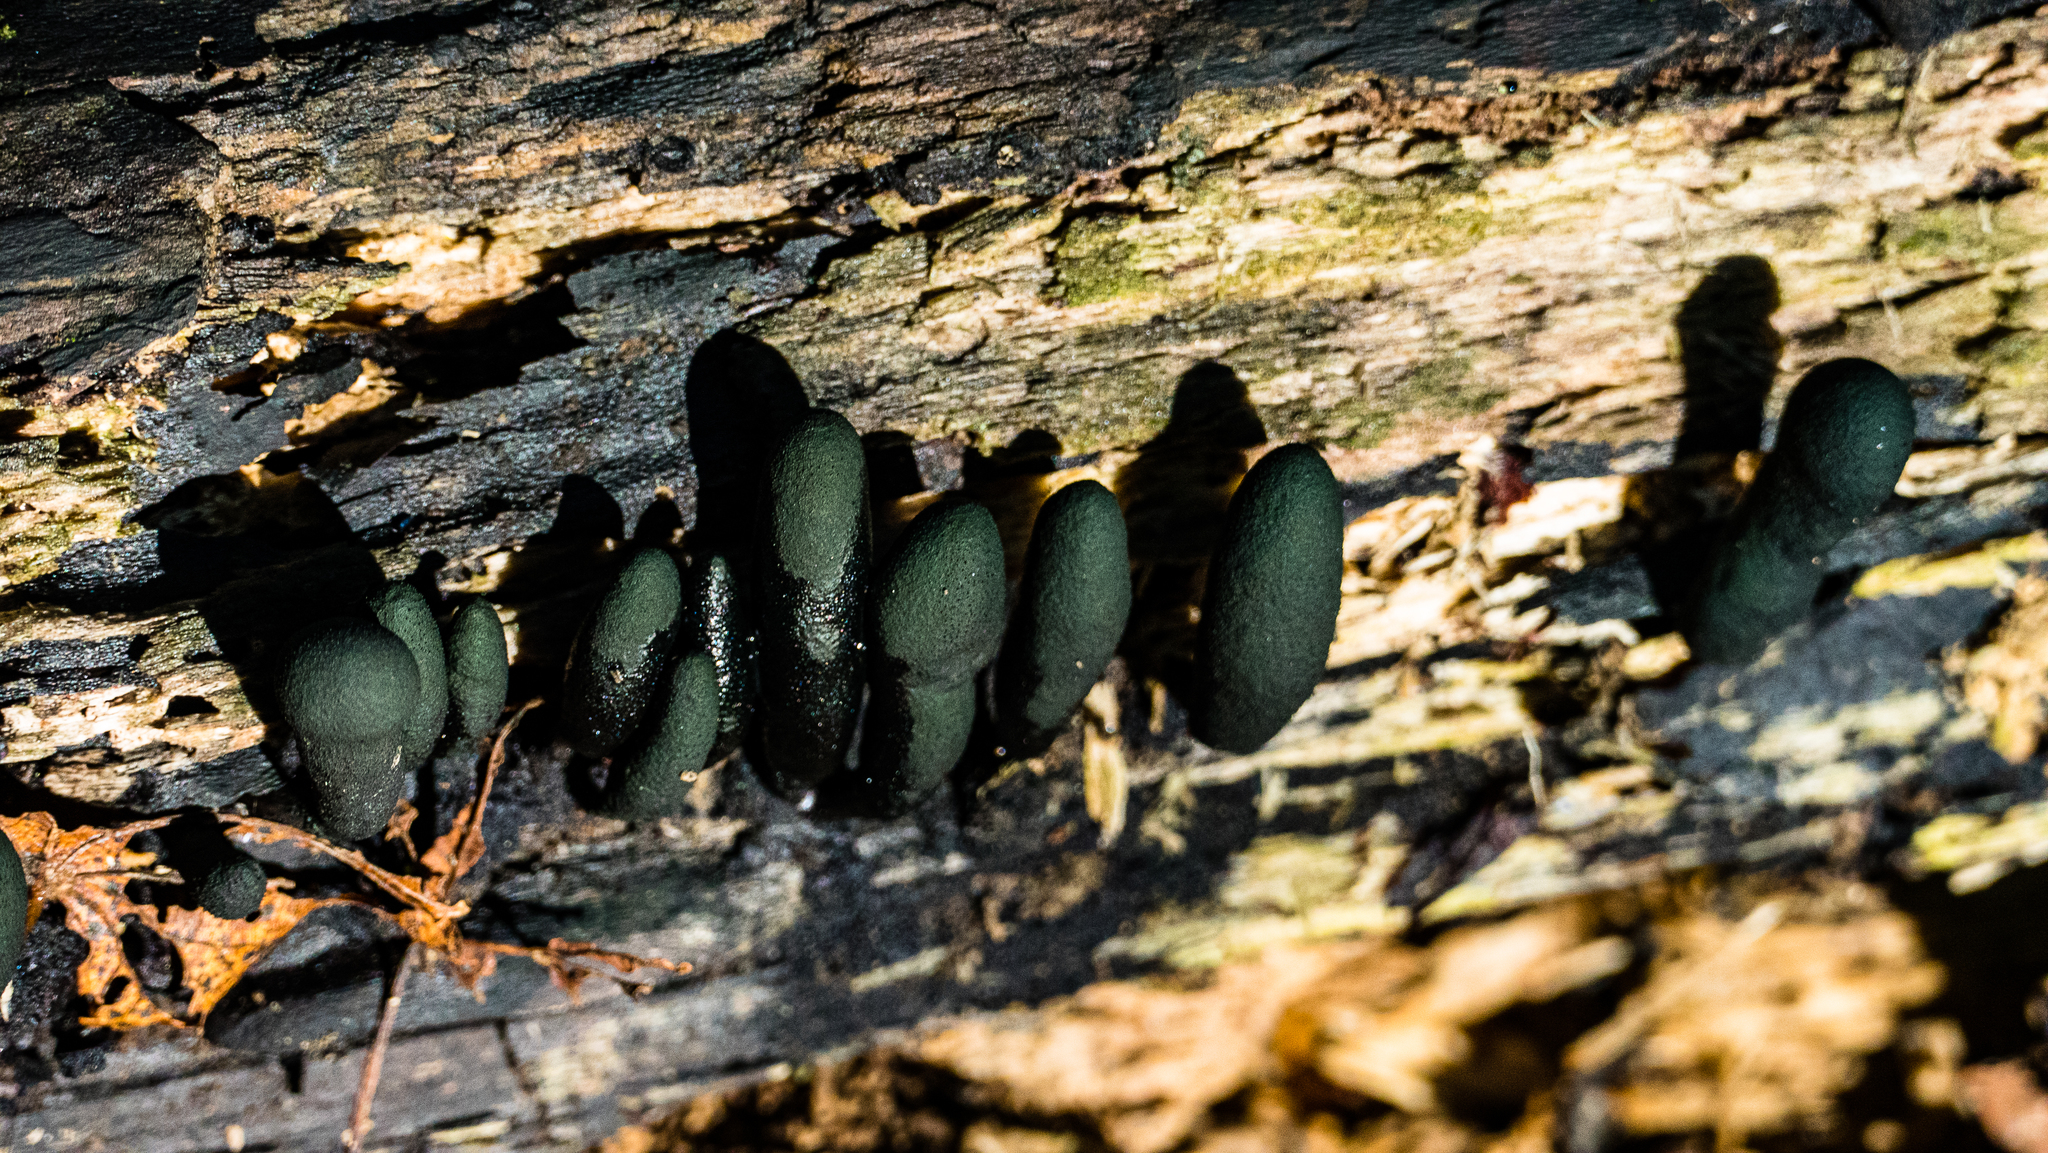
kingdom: Fungi
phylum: Ascomycota
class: Sordariomycetes
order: Xylariales
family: Xylariaceae
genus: Xylaria
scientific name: Xylaria polymorpha
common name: Dead man's fingers
